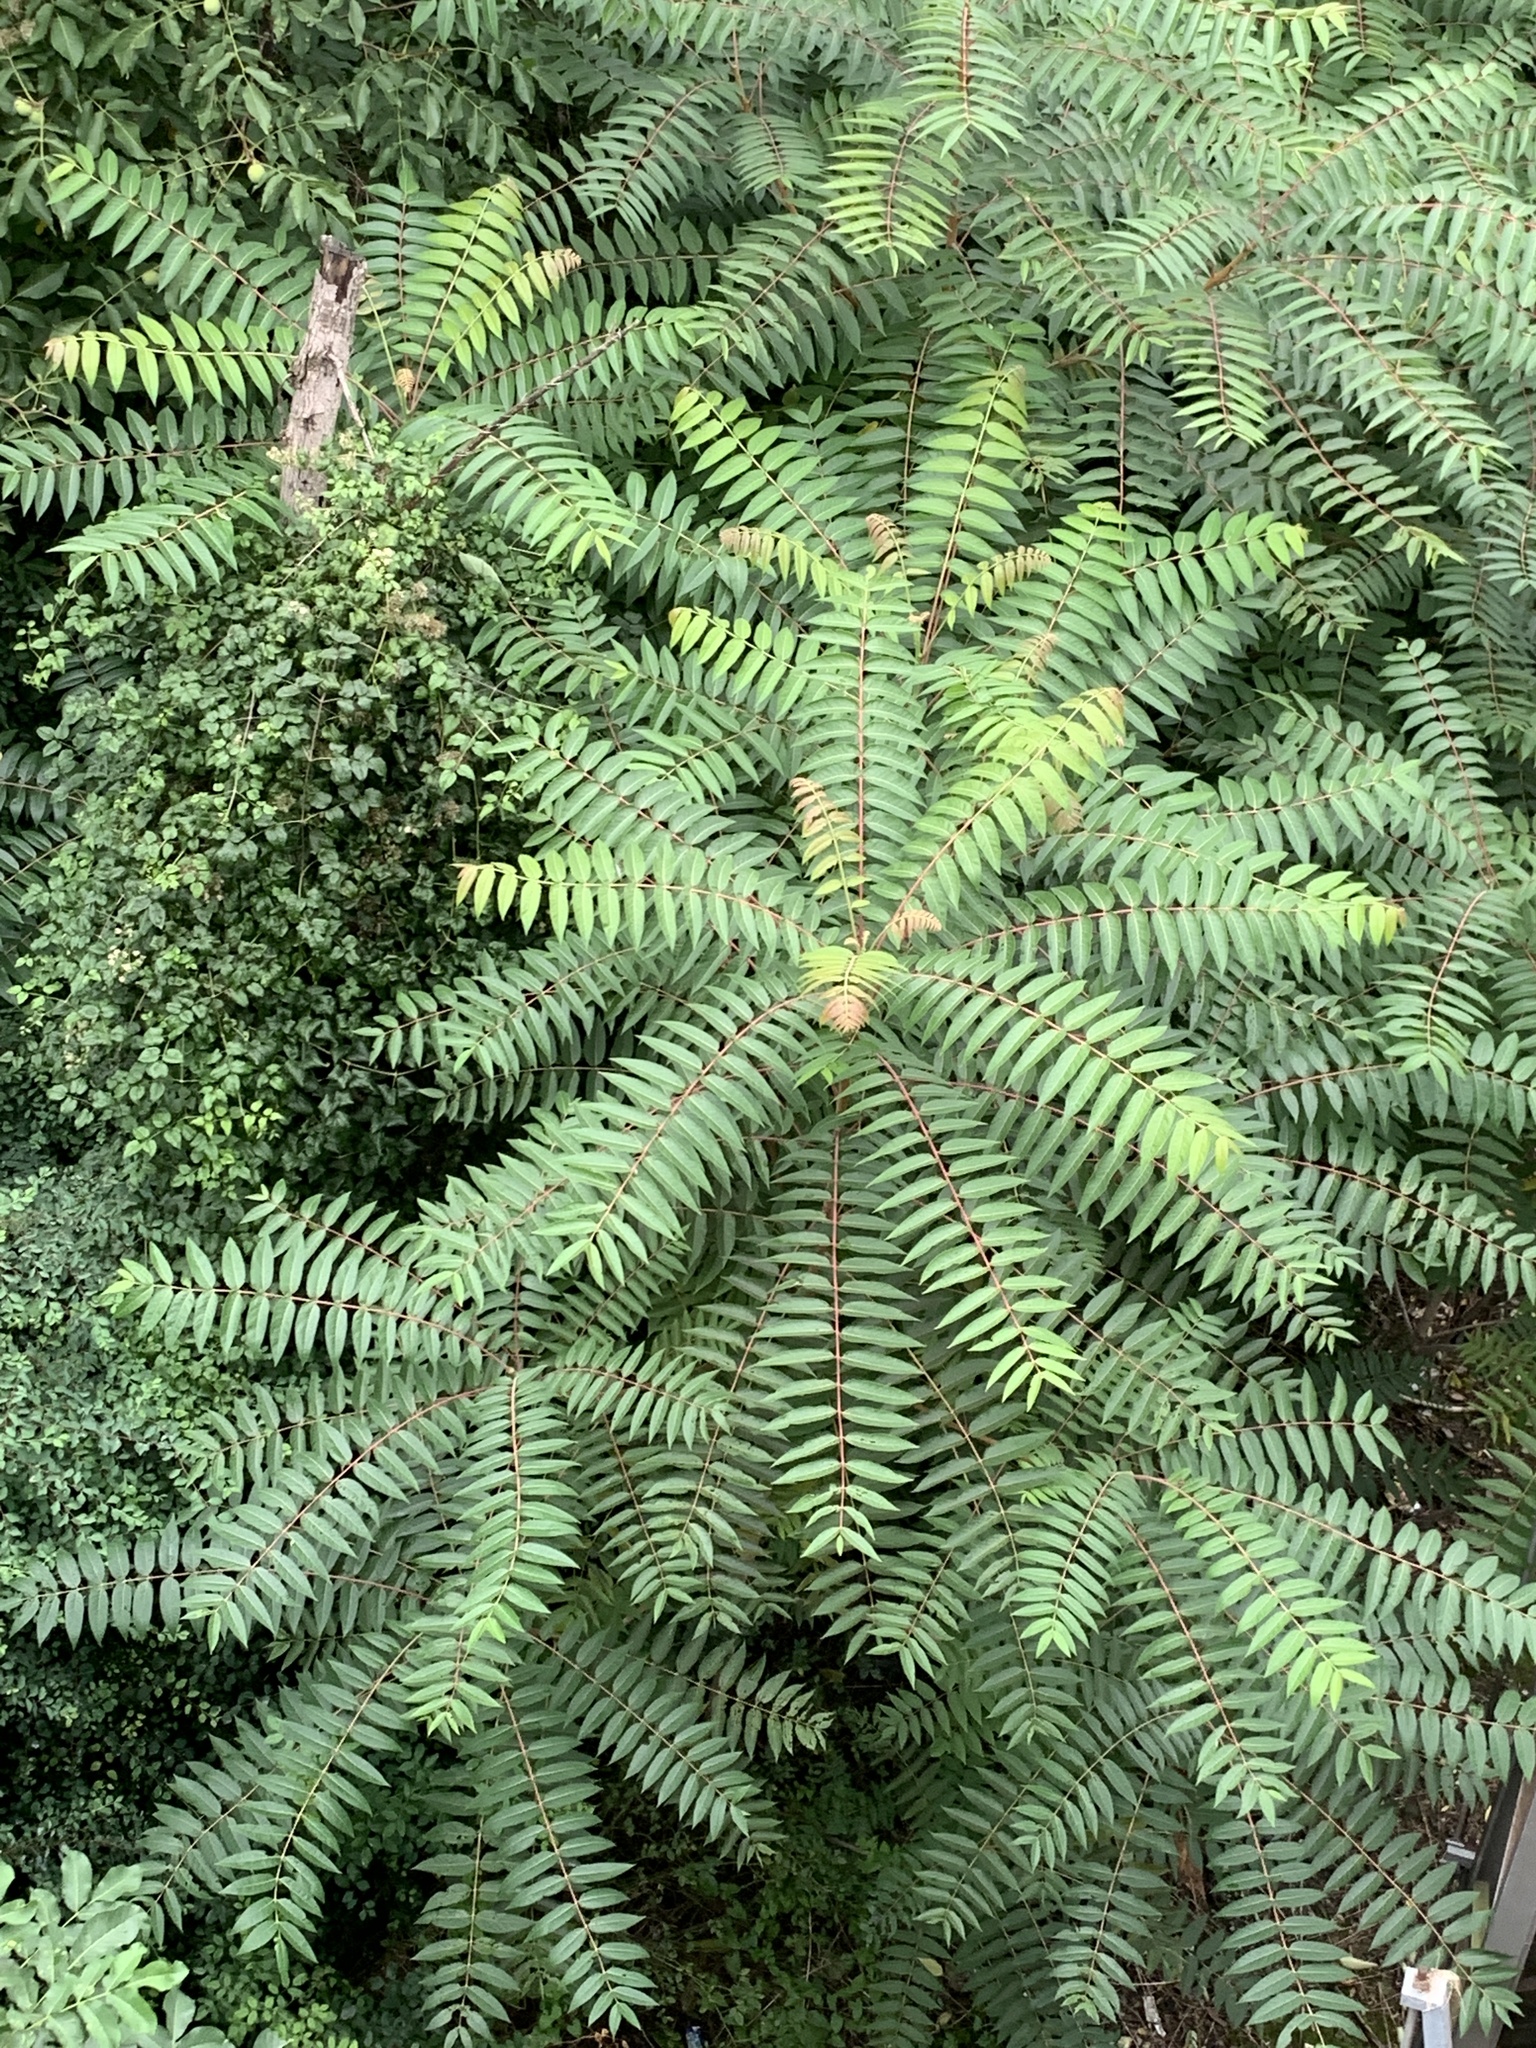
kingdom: Plantae
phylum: Tracheophyta
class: Magnoliopsida
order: Sapindales
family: Simaroubaceae
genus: Ailanthus
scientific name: Ailanthus altissima
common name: Tree-of-heaven
